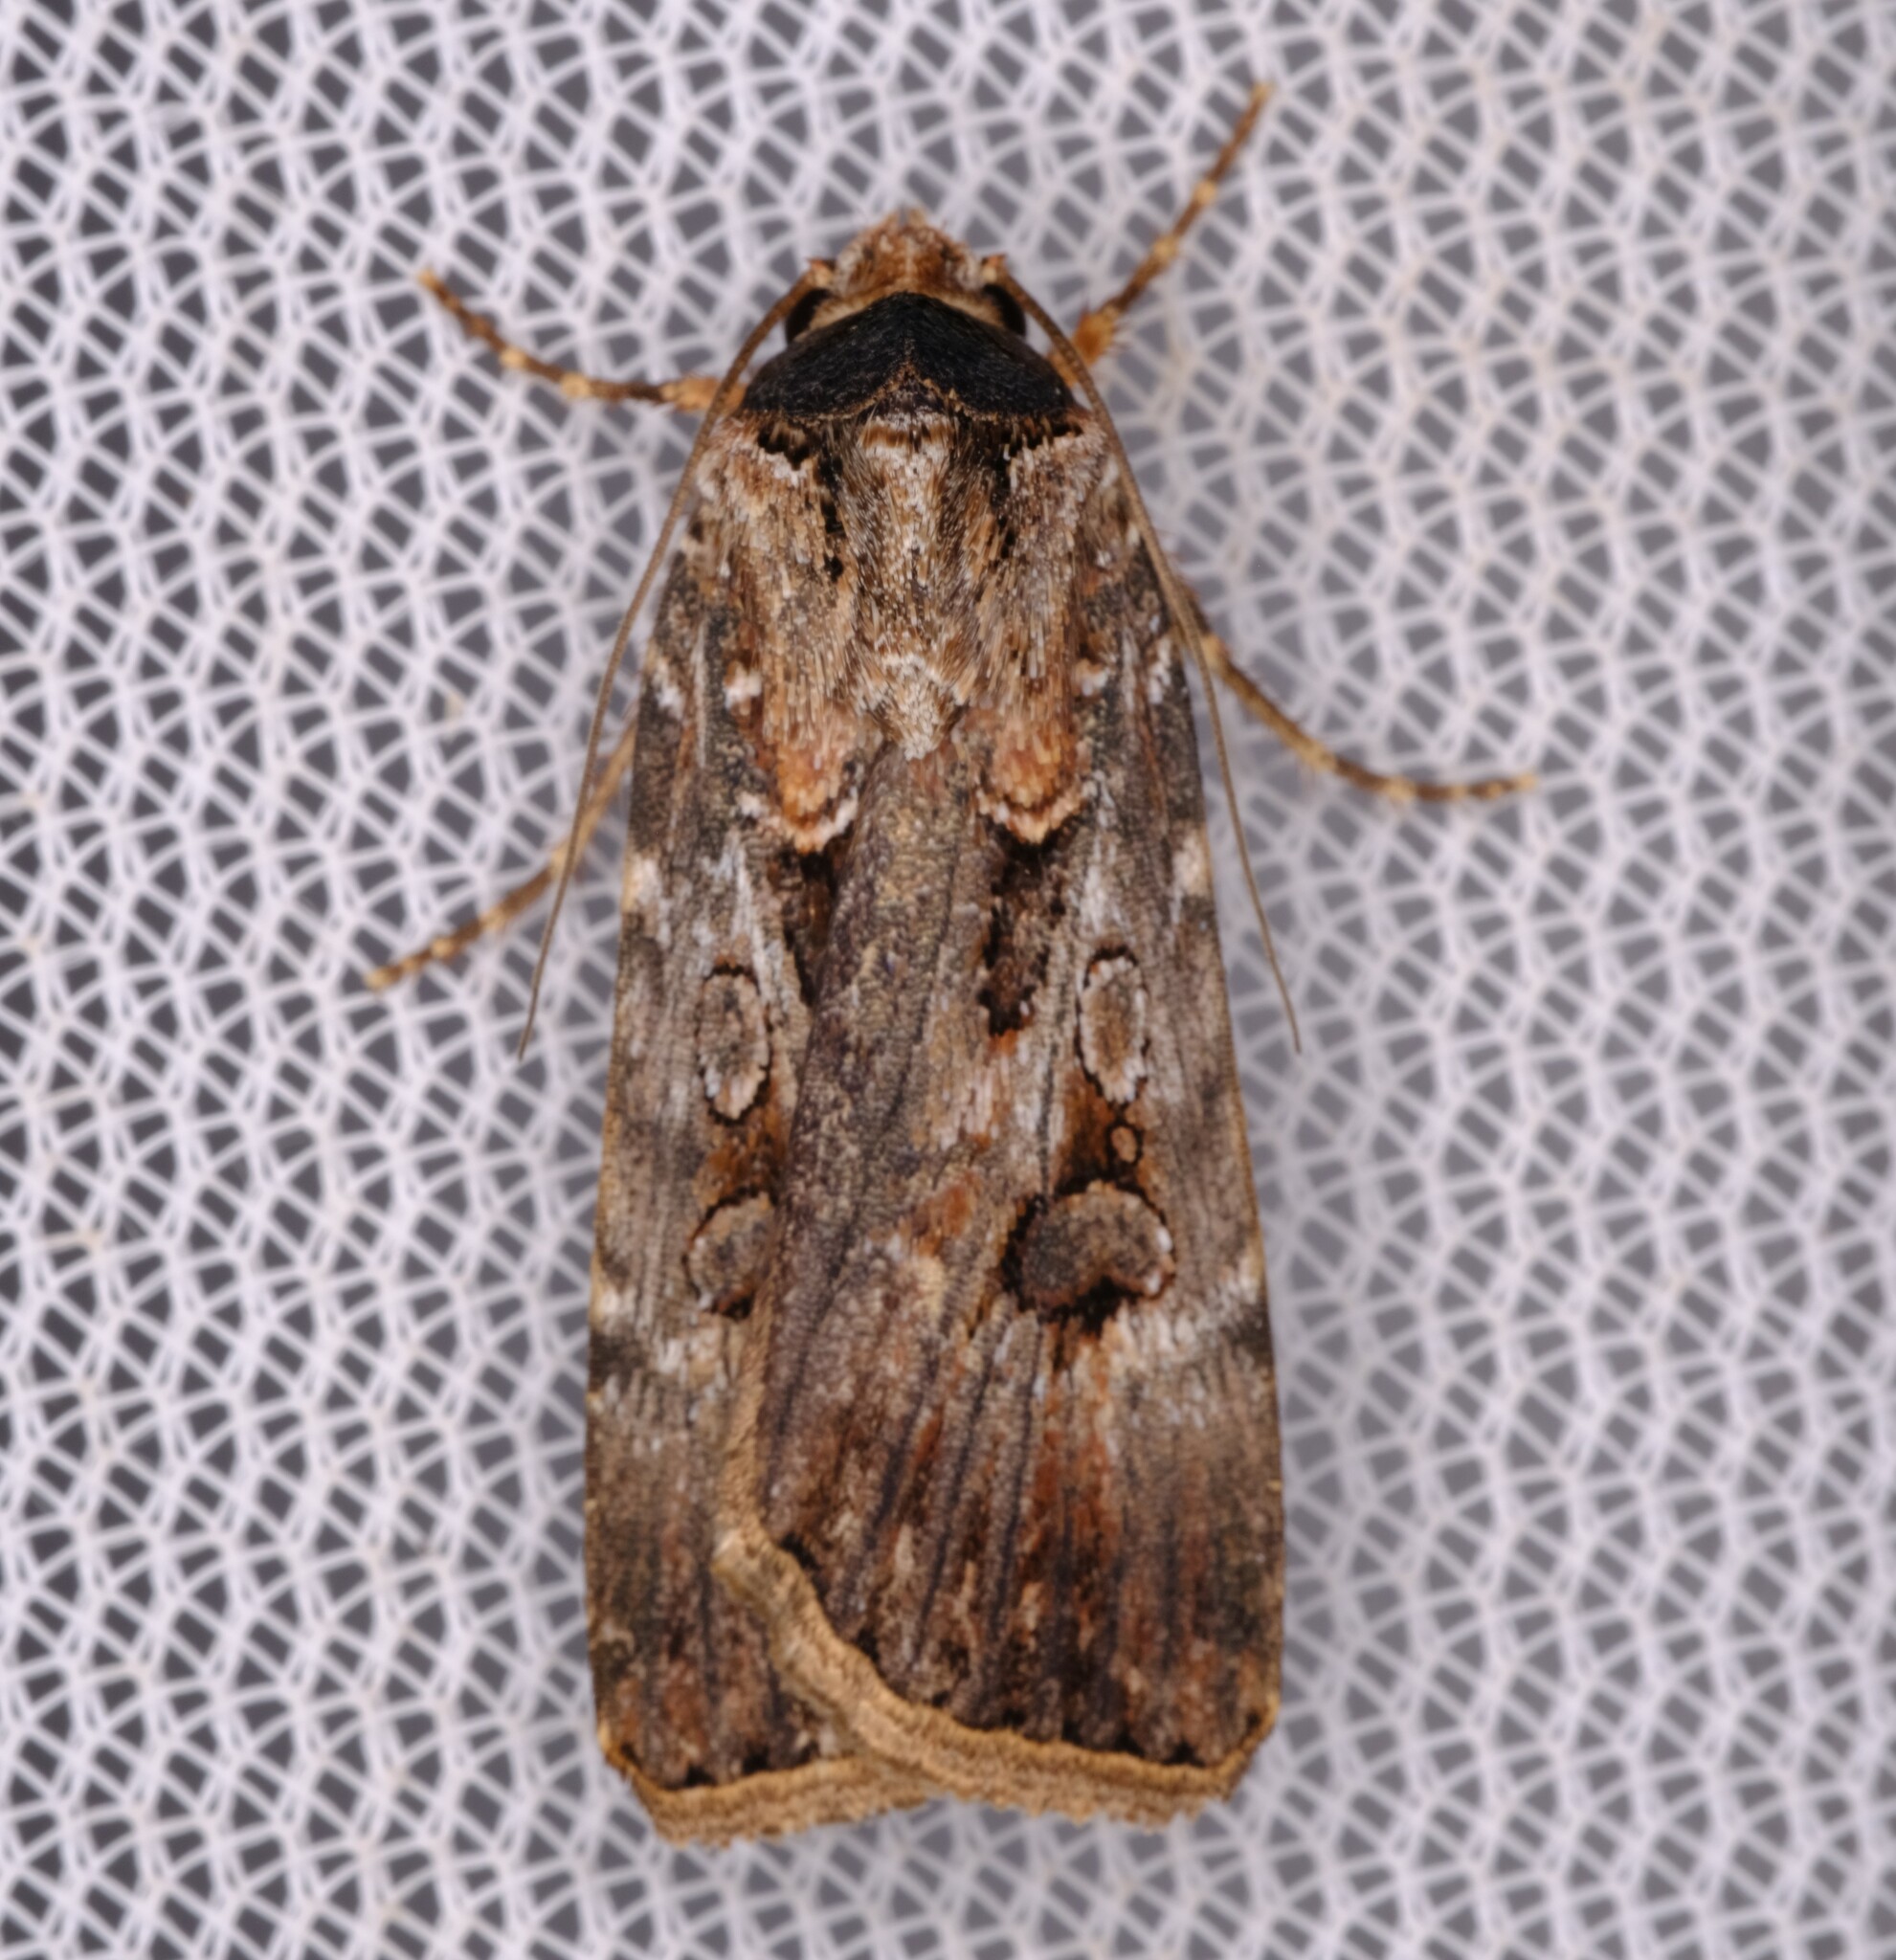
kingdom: Animalia
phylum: Arthropoda
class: Insecta
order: Lepidoptera
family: Noctuidae
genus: Agrotis
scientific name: Agrotis munda
